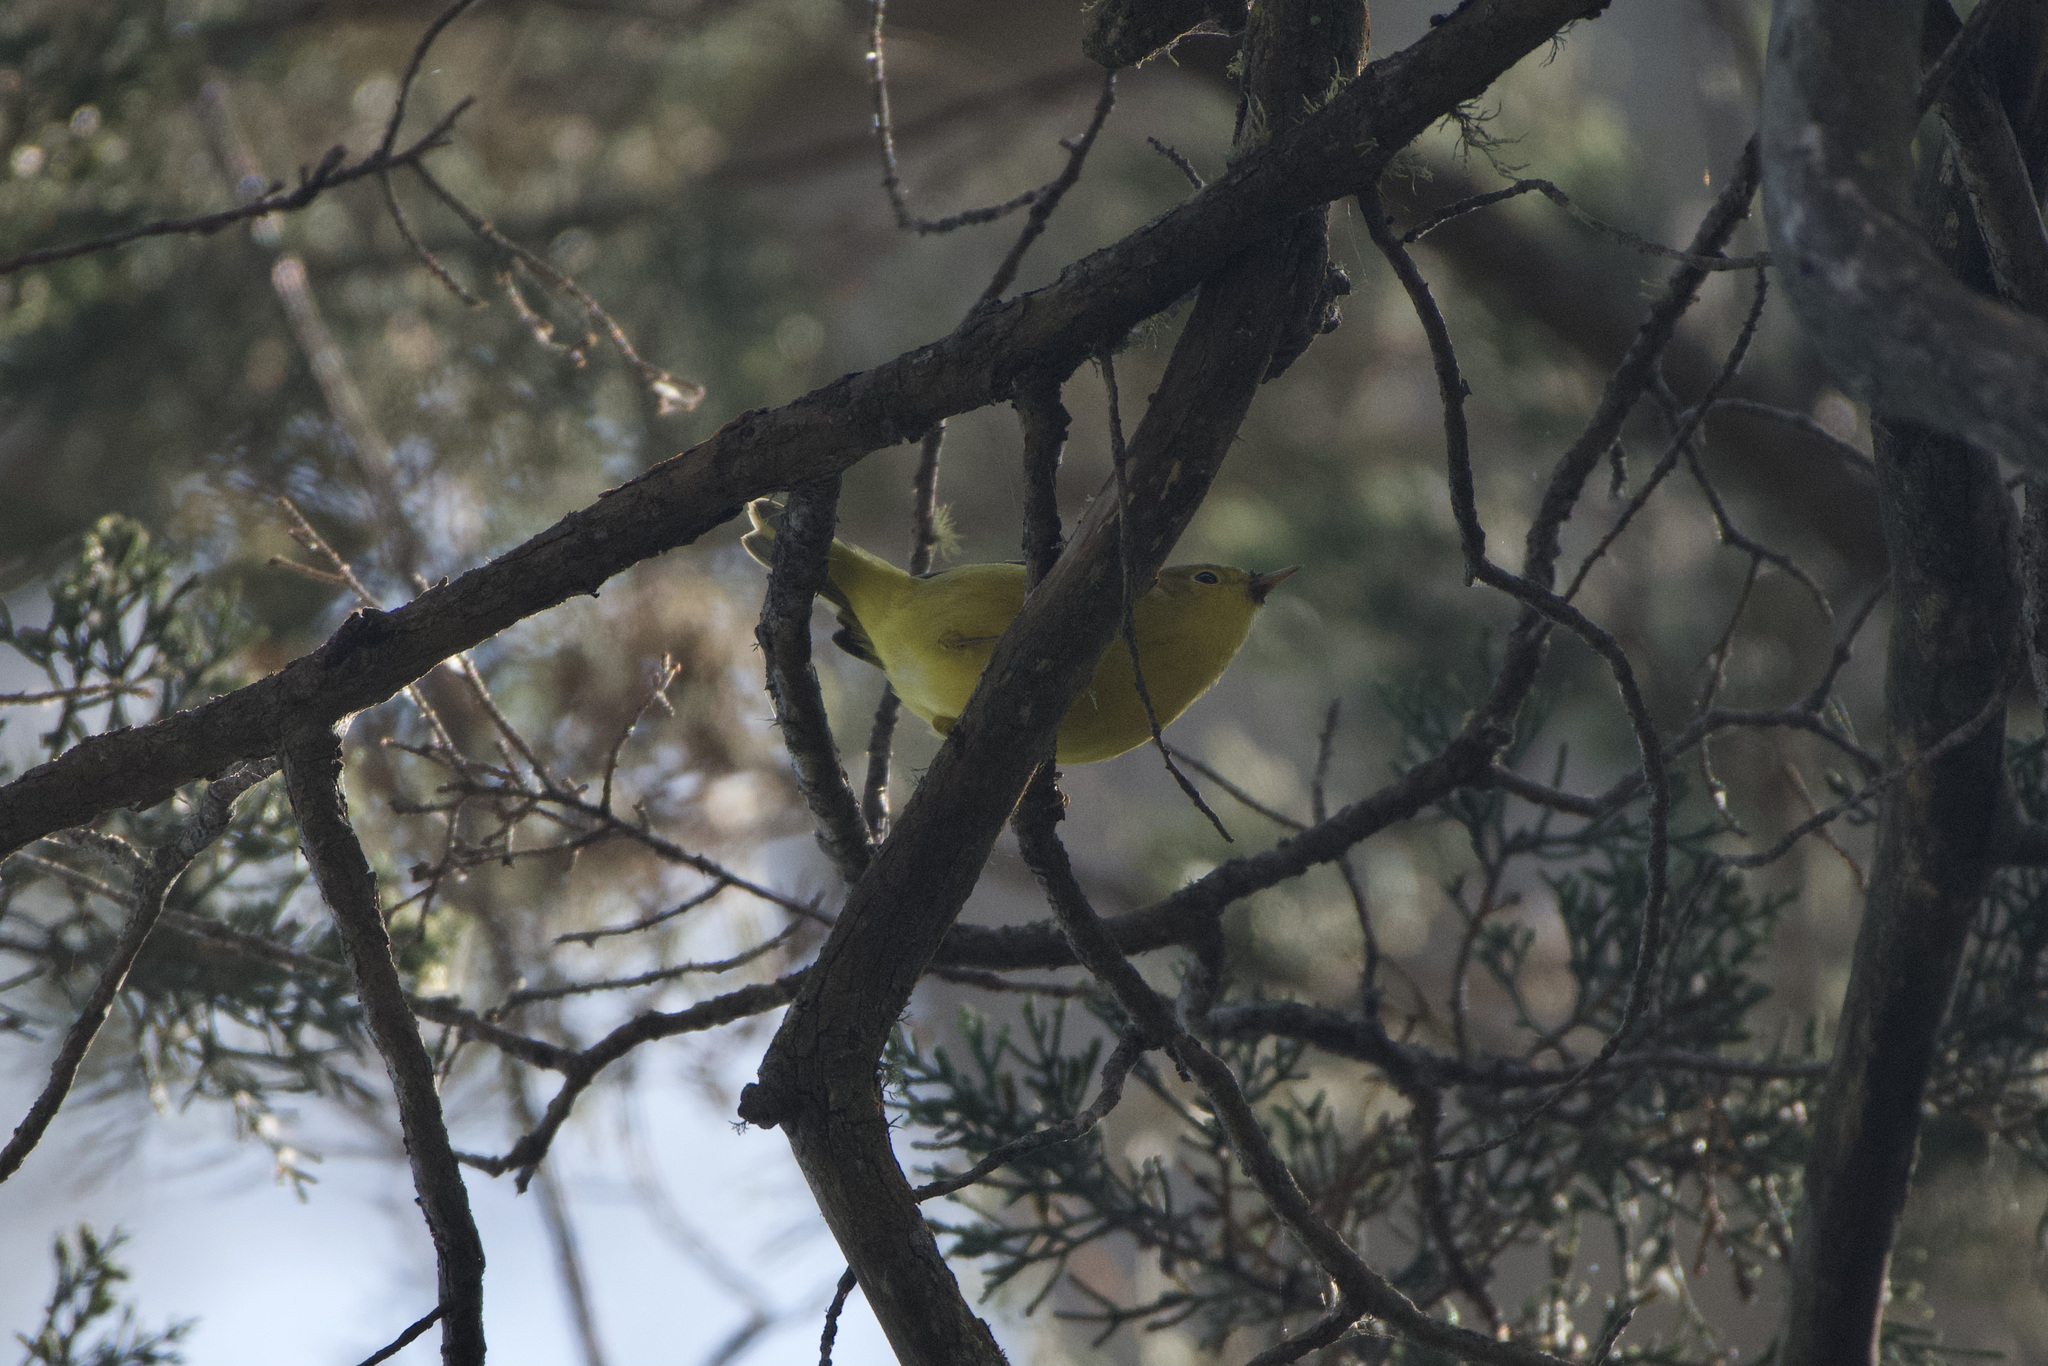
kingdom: Animalia
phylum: Chordata
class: Aves
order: Passeriformes
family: Parulidae
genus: Setophaga
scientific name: Setophaga petechia
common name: Yellow warbler
